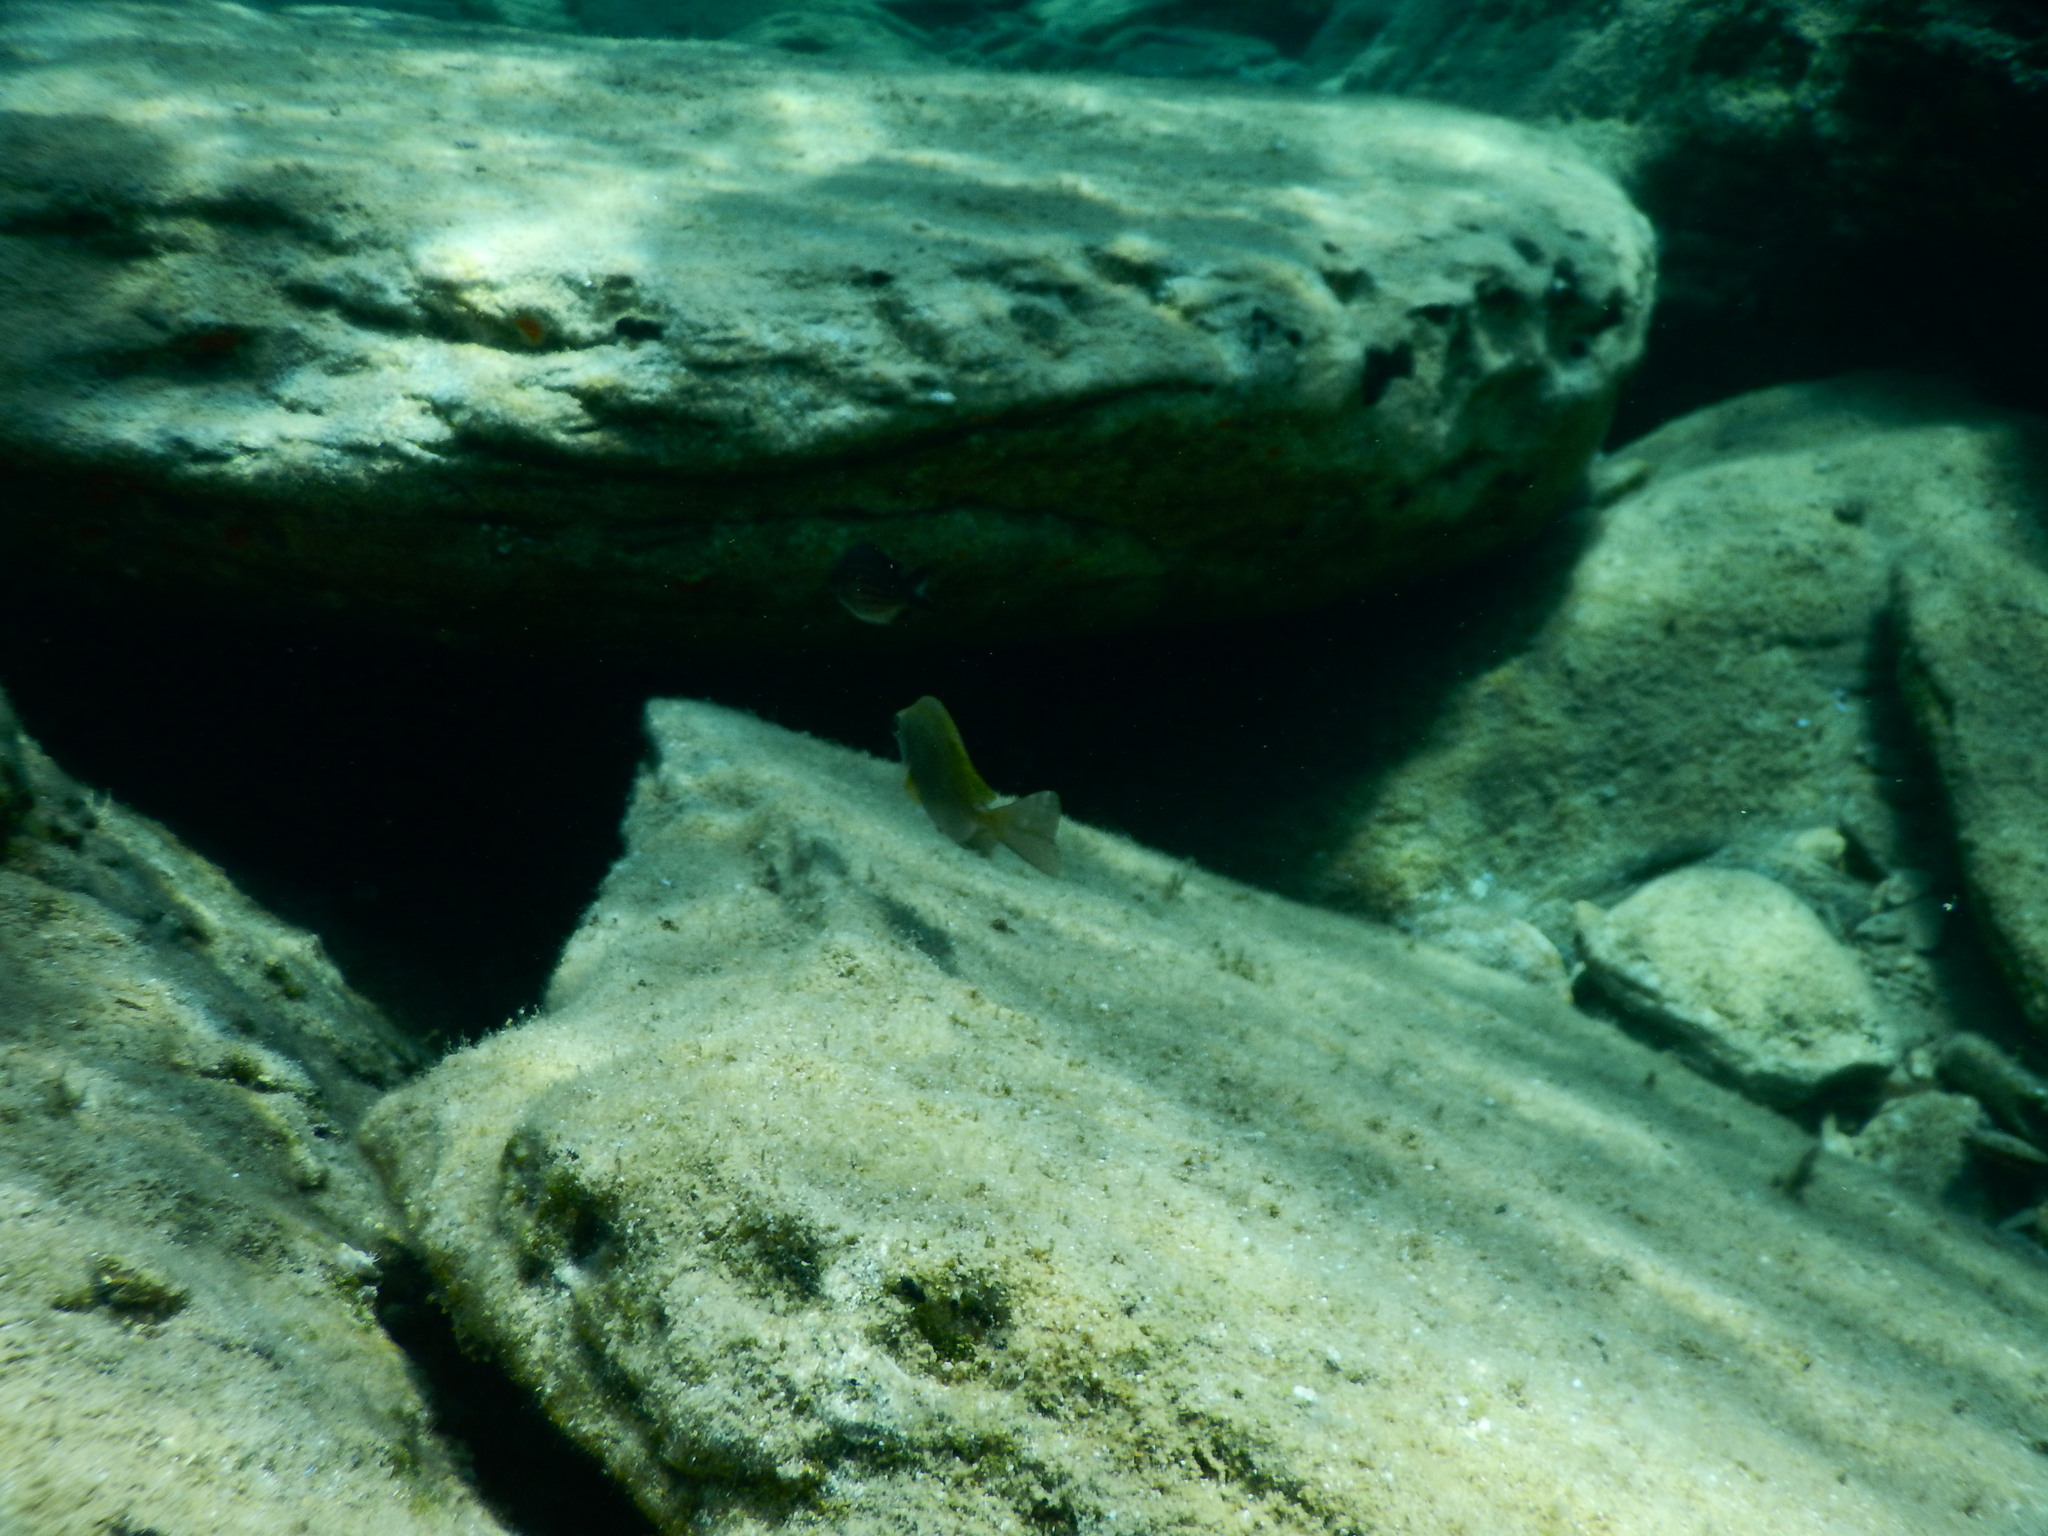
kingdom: Animalia
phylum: Chordata
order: Perciformes
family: Siganidae
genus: Siganus
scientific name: Siganus
